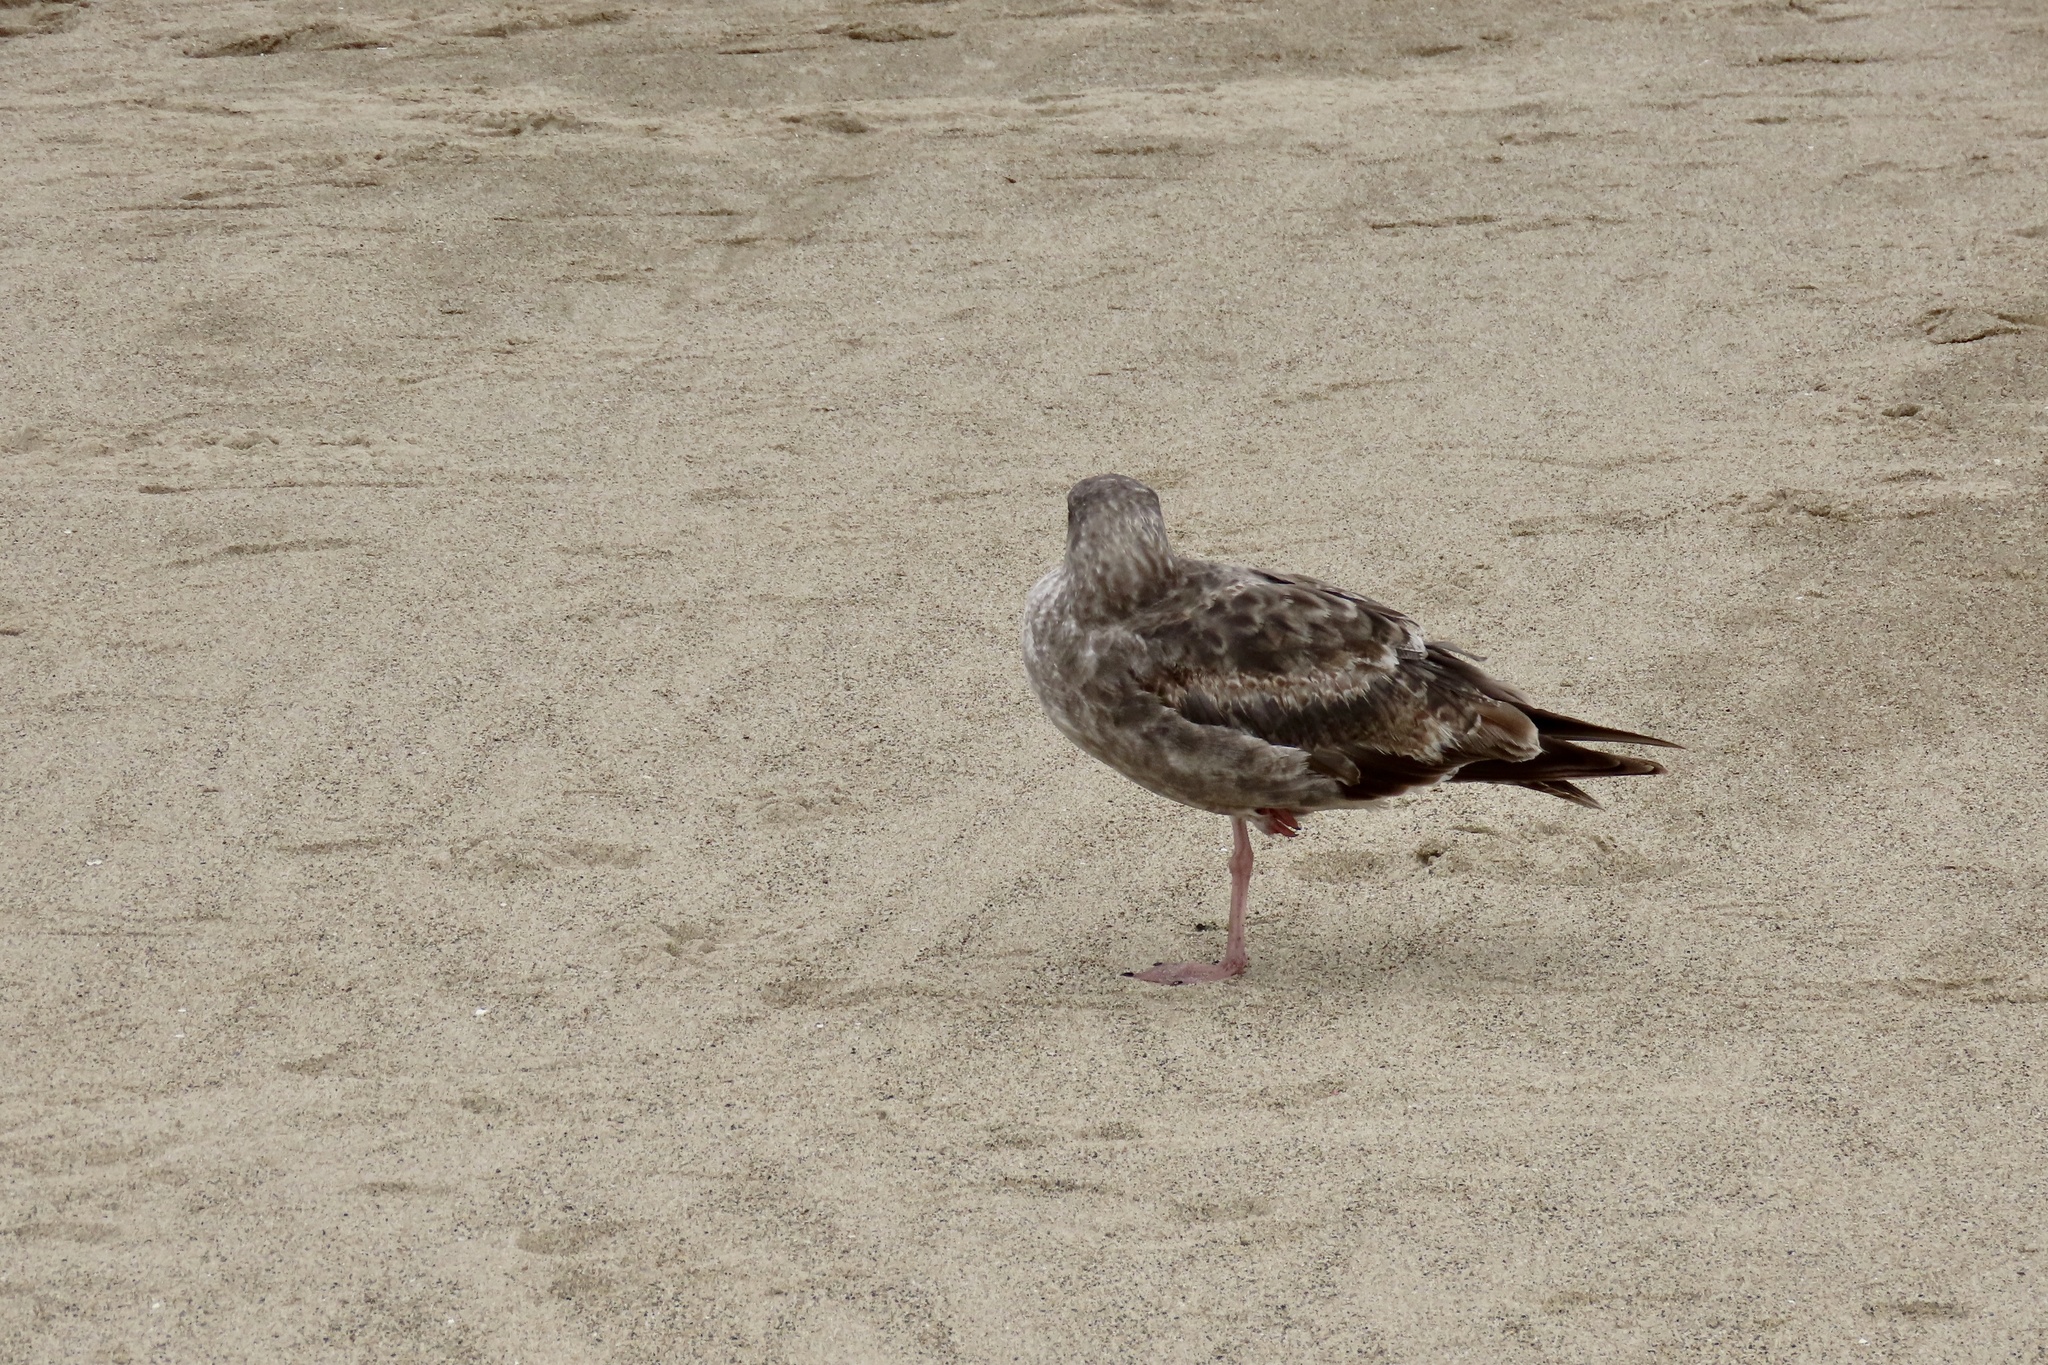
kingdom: Animalia
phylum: Chordata
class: Aves
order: Charadriiformes
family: Laridae
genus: Larus
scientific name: Larus occidentalis
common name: Western gull
